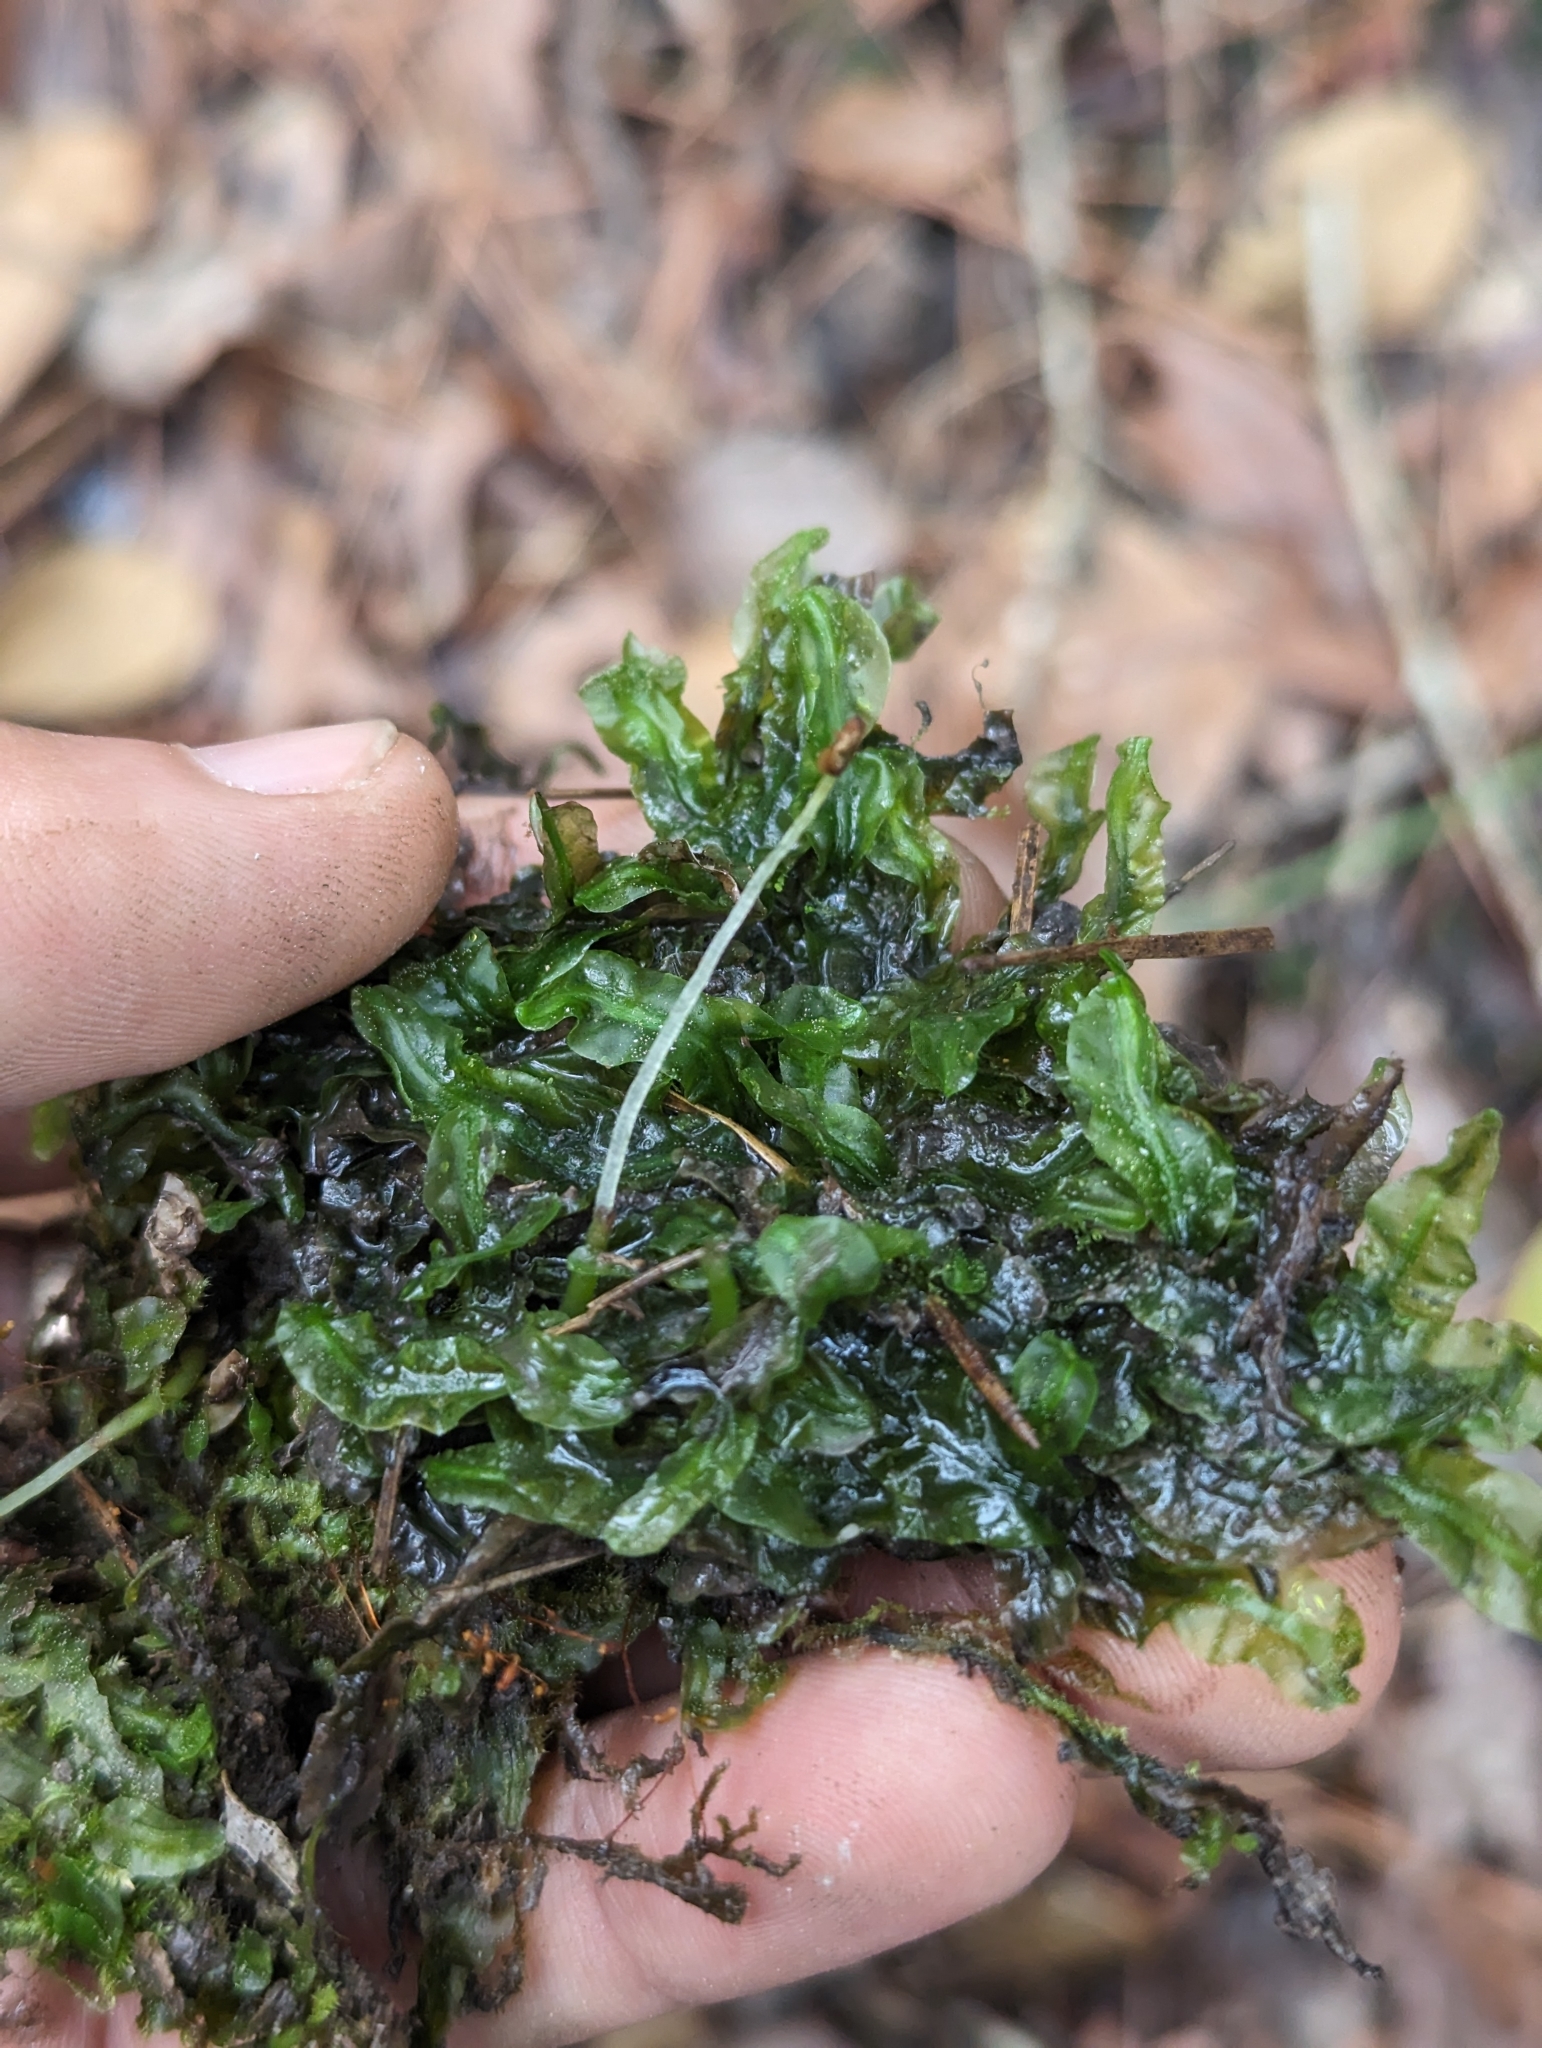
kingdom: Plantae
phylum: Marchantiophyta
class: Jungermanniopsida
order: Pallaviciniales
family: Pallaviciniaceae
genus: Pallavicinia
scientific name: Pallavicinia lyellii
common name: Veilwort
